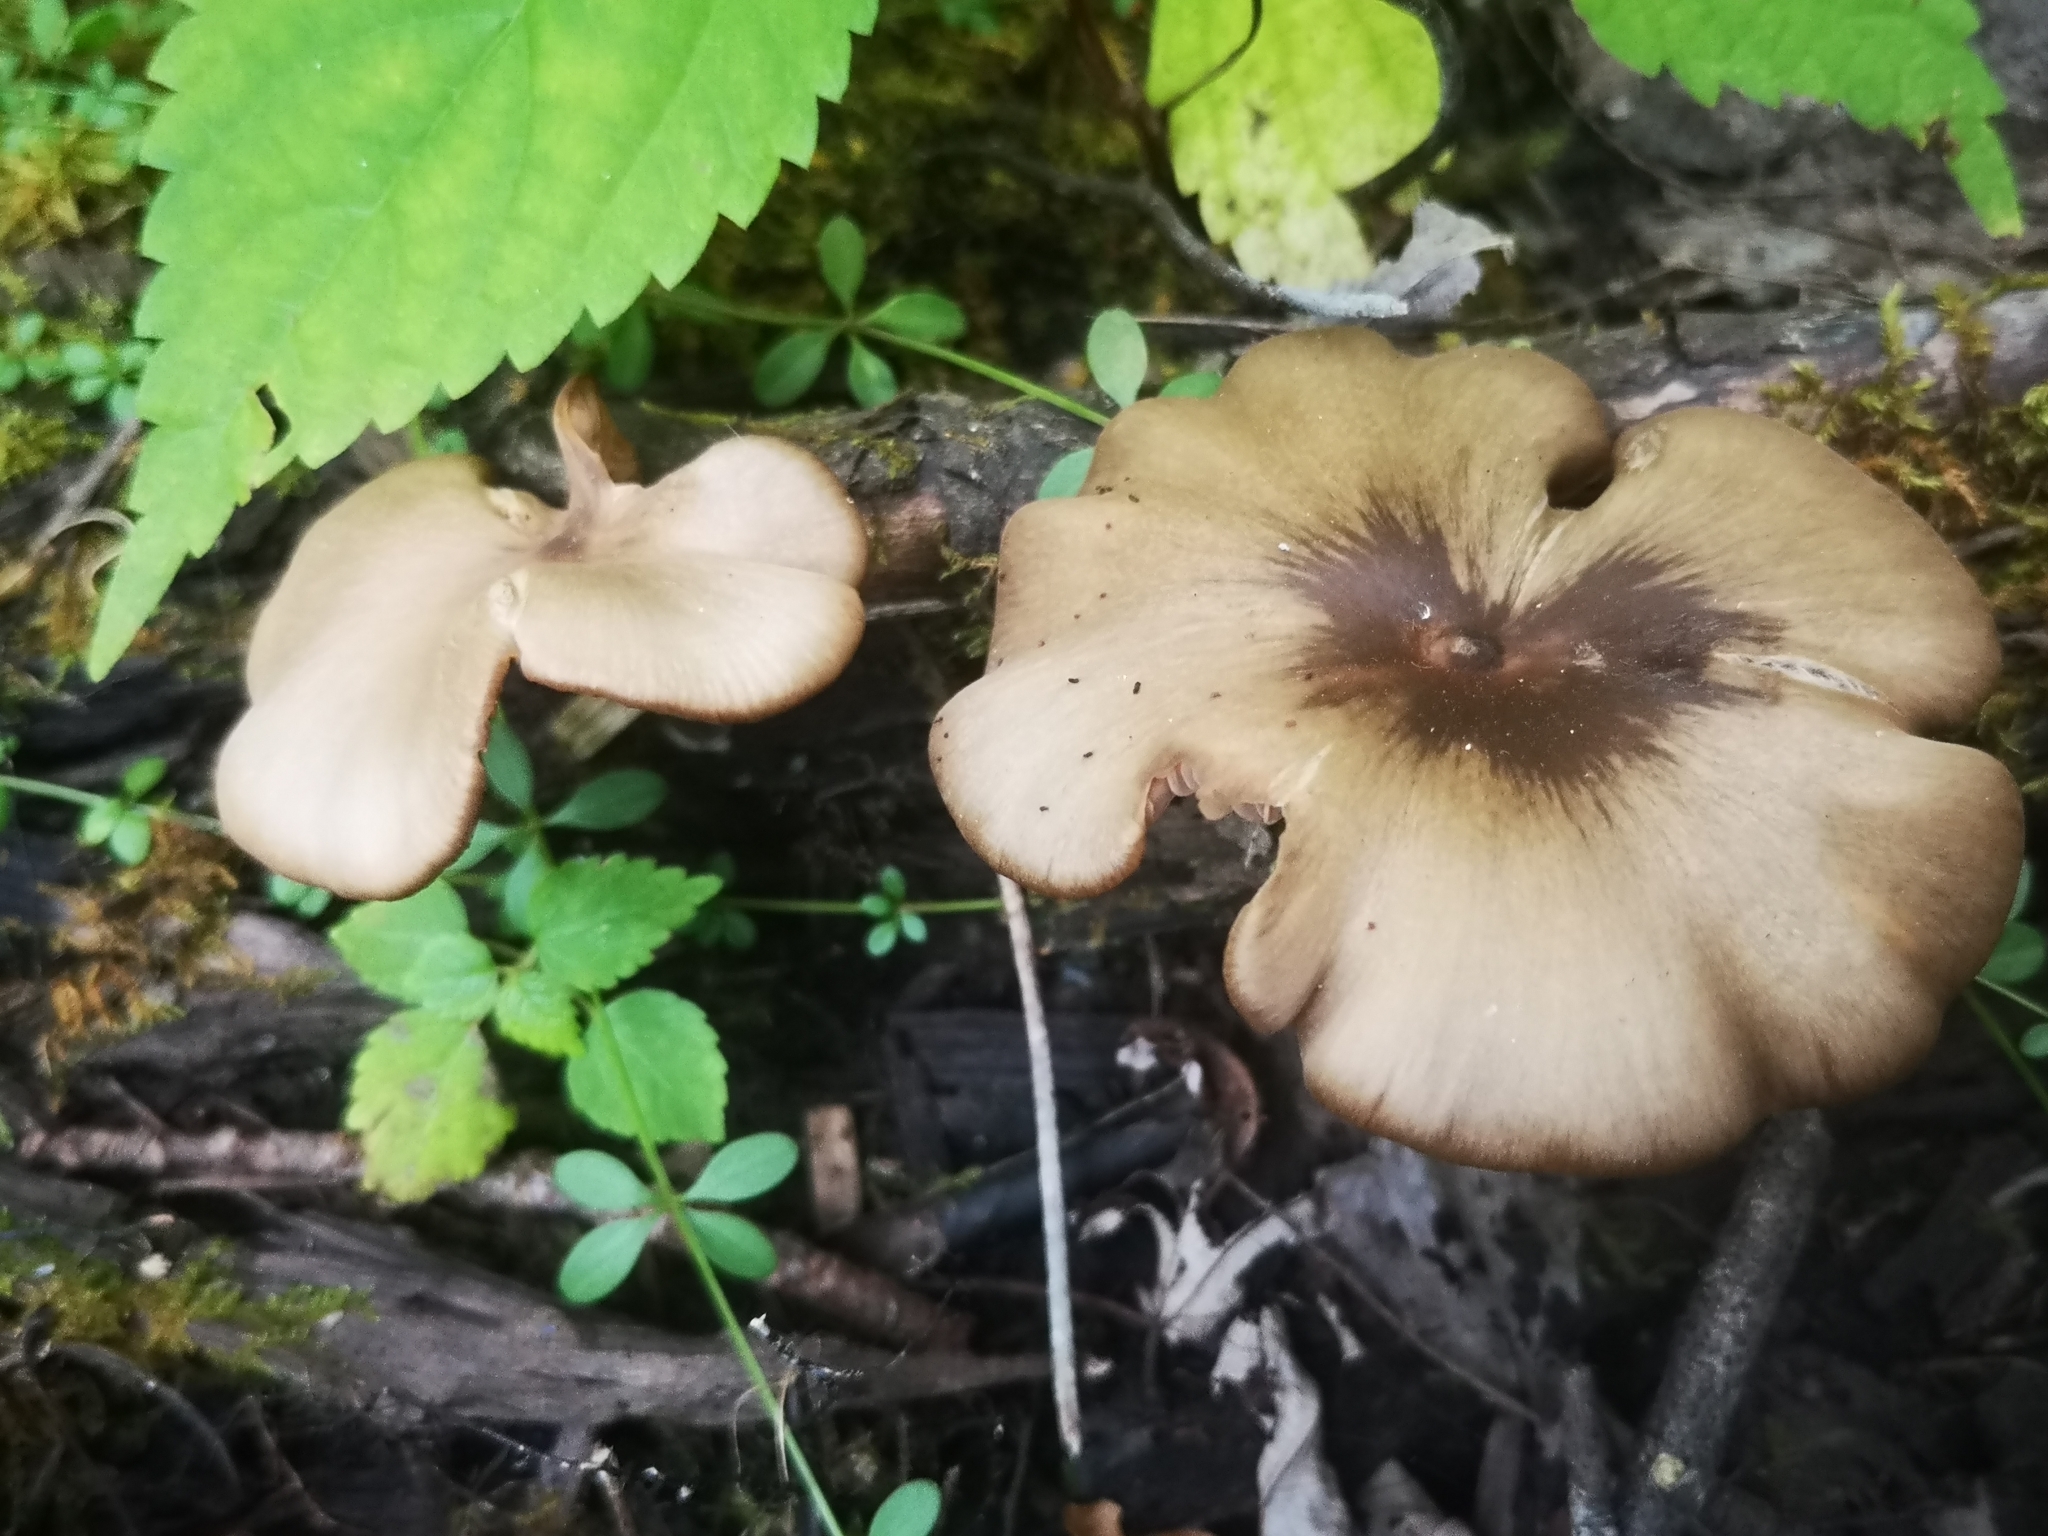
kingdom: Fungi
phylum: Basidiomycota
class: Agaricomycetes
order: Agaricales
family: Entolomataceae
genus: Entoloma
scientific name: Entoloma strictius
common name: Straight-stalked entoloma
